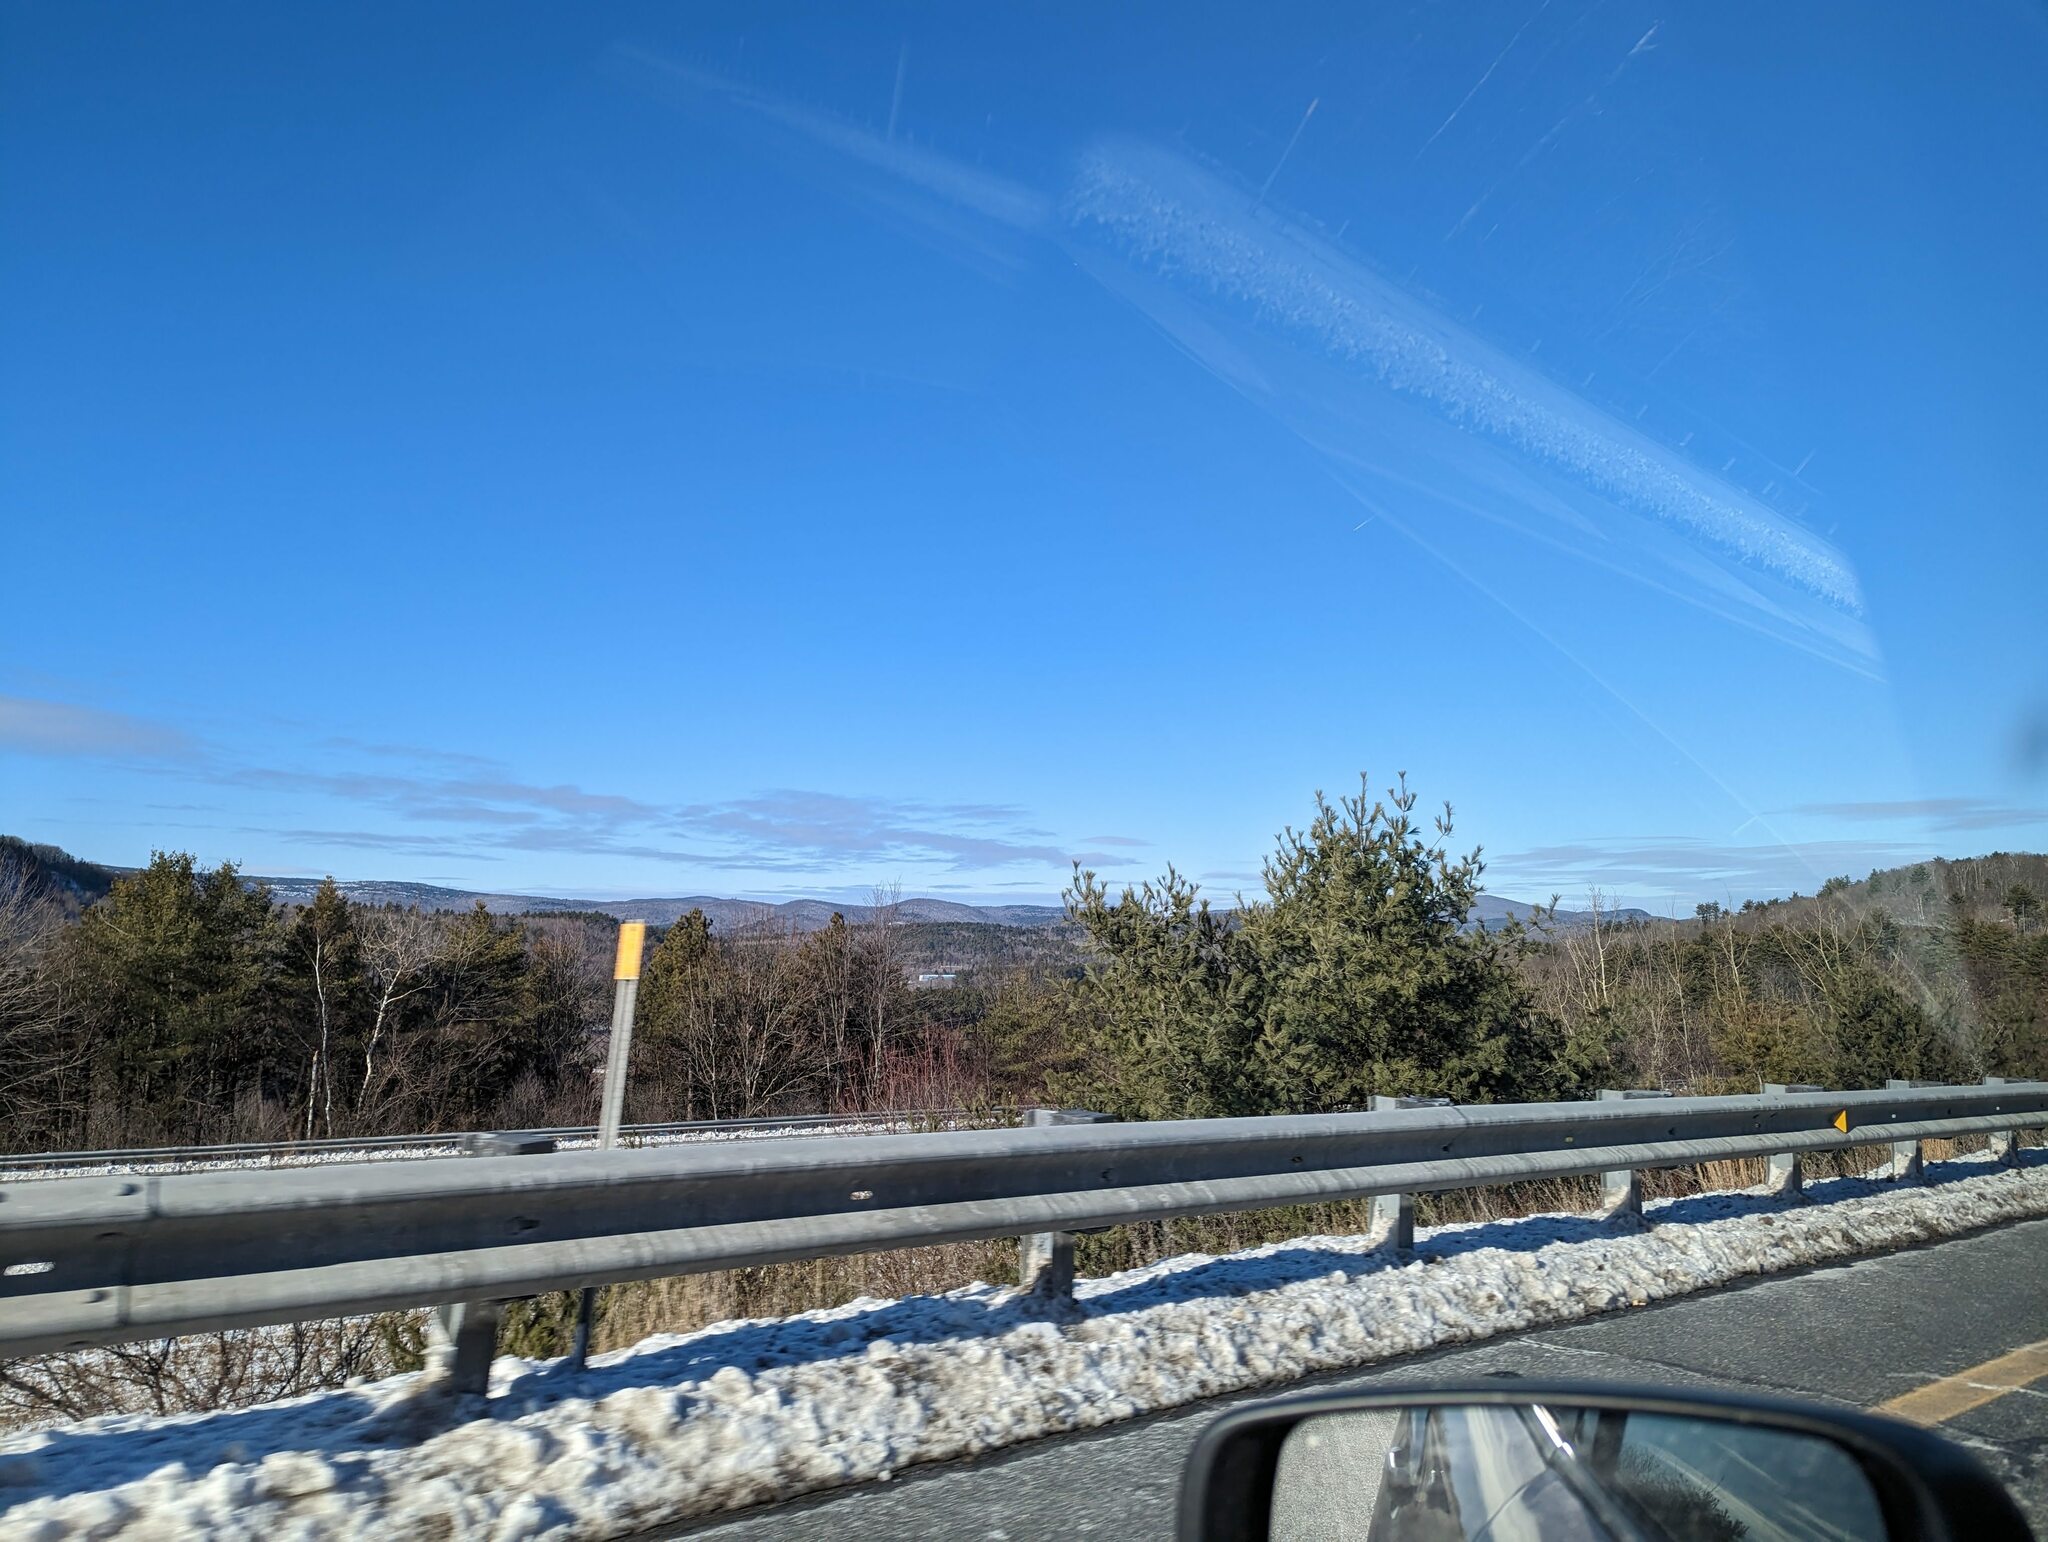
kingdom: Plantae
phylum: Tracheophyta
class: Pinopsida
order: Pinales
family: Pinaceae
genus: Pinus
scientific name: Pinus strobus
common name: Weymouth pine
